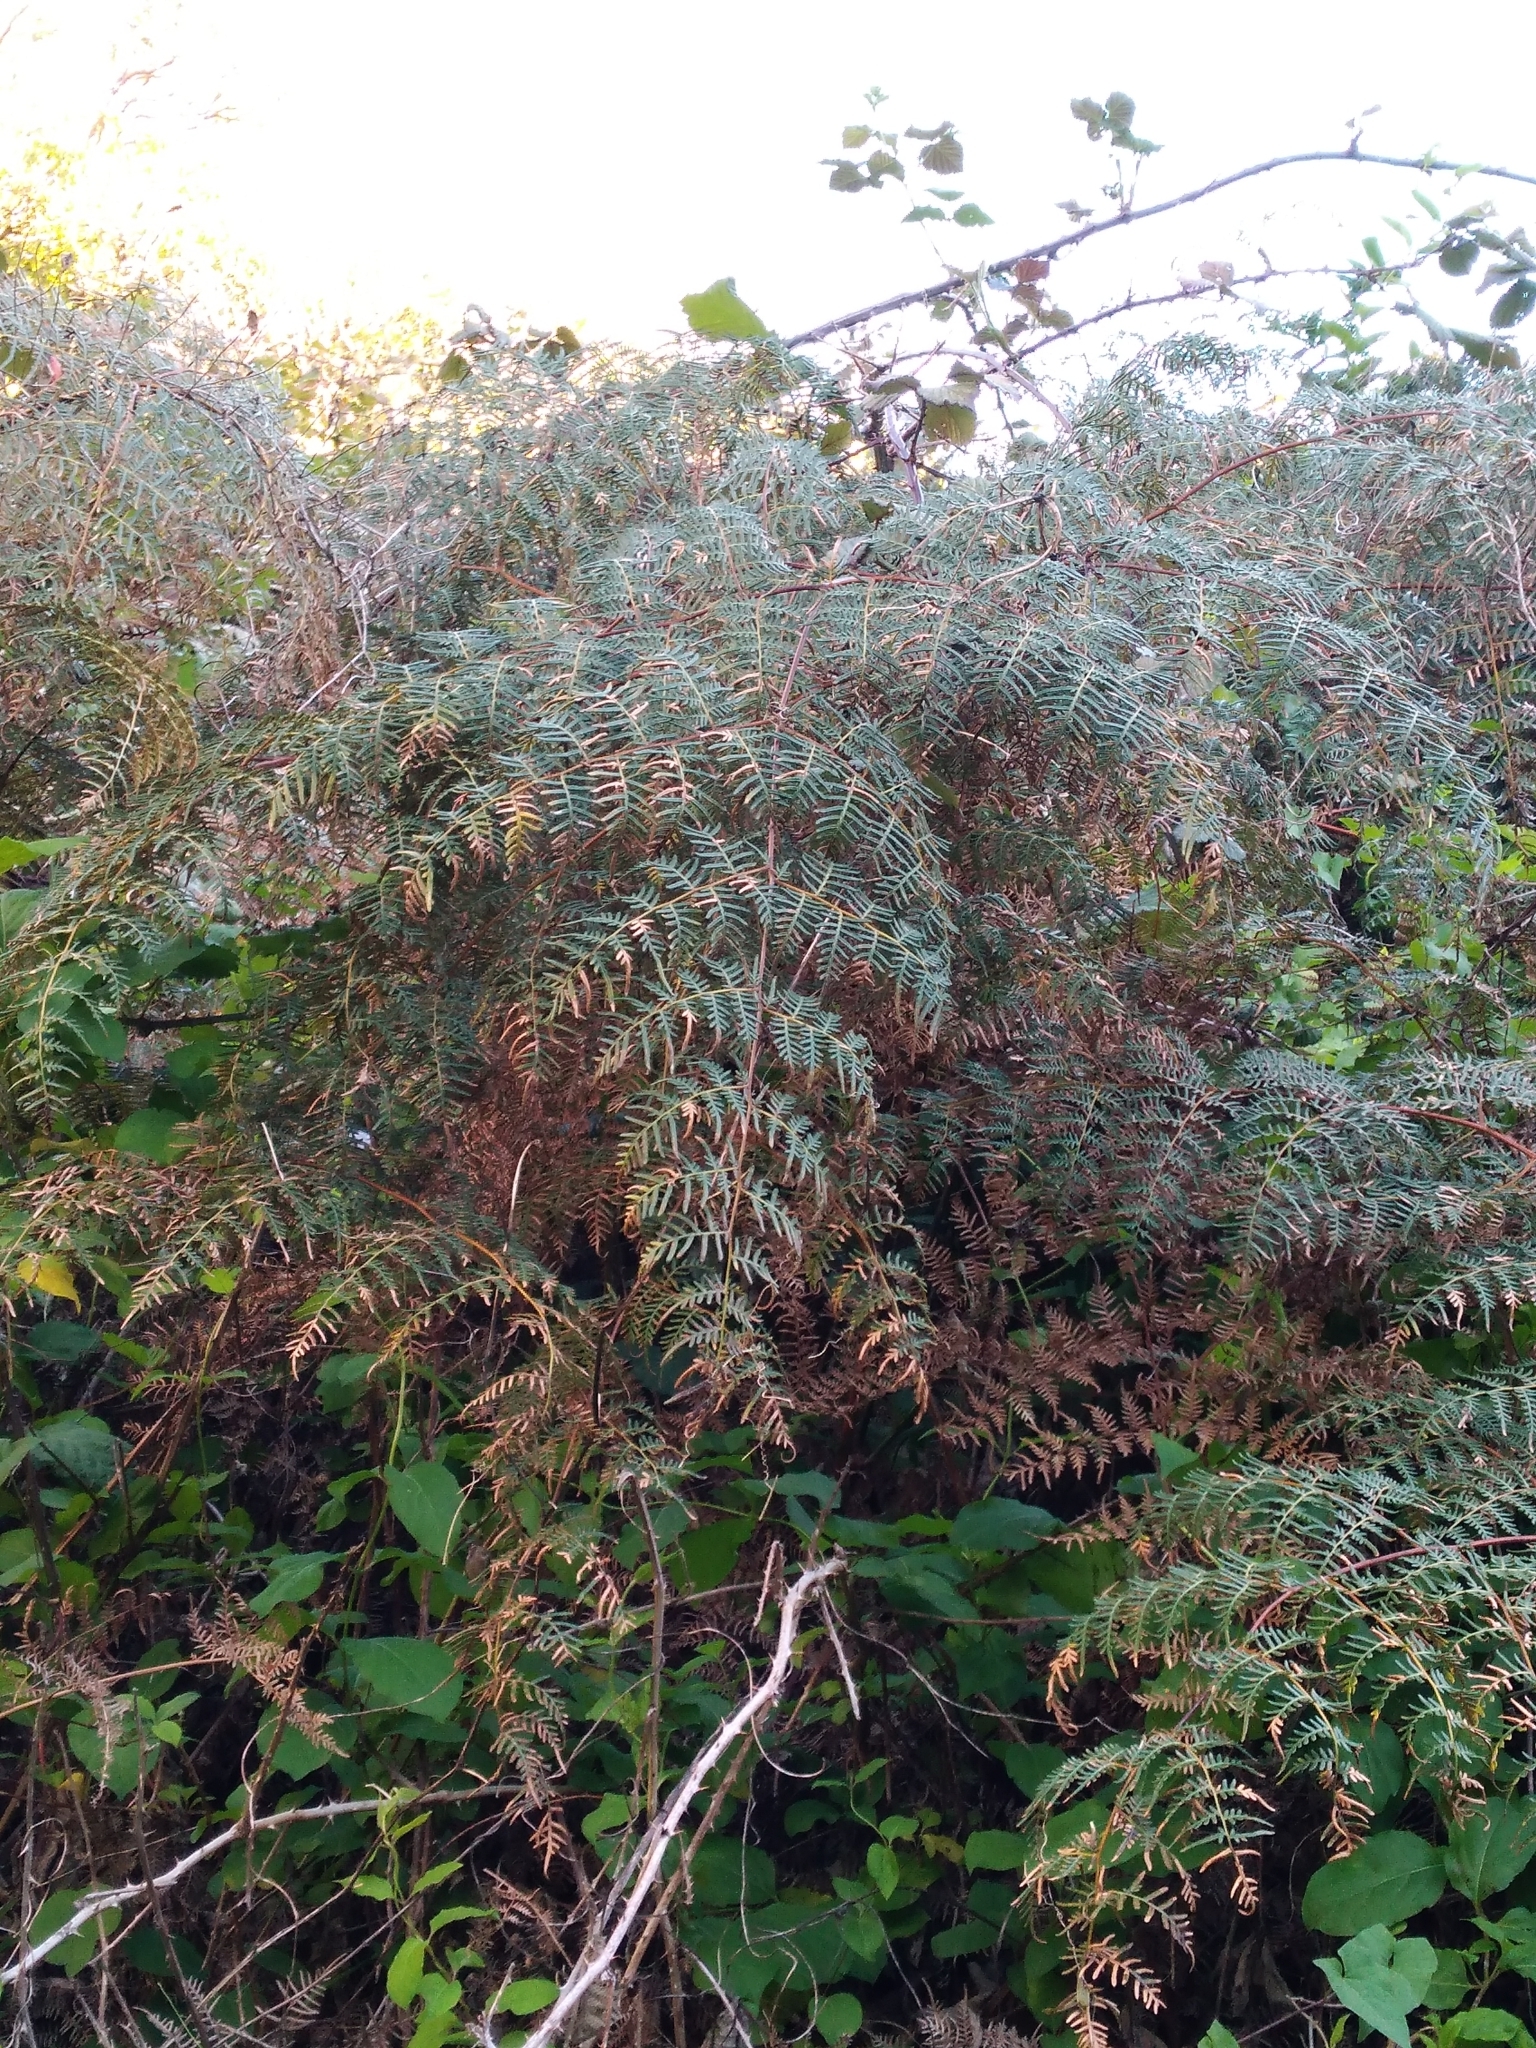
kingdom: Plantae
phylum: Tracheophyta
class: Polypodiopsida
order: Polypodiales
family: Dennstaedtiaceae
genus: Pteridium
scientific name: Pteridium esculentum
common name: Bracken fern
